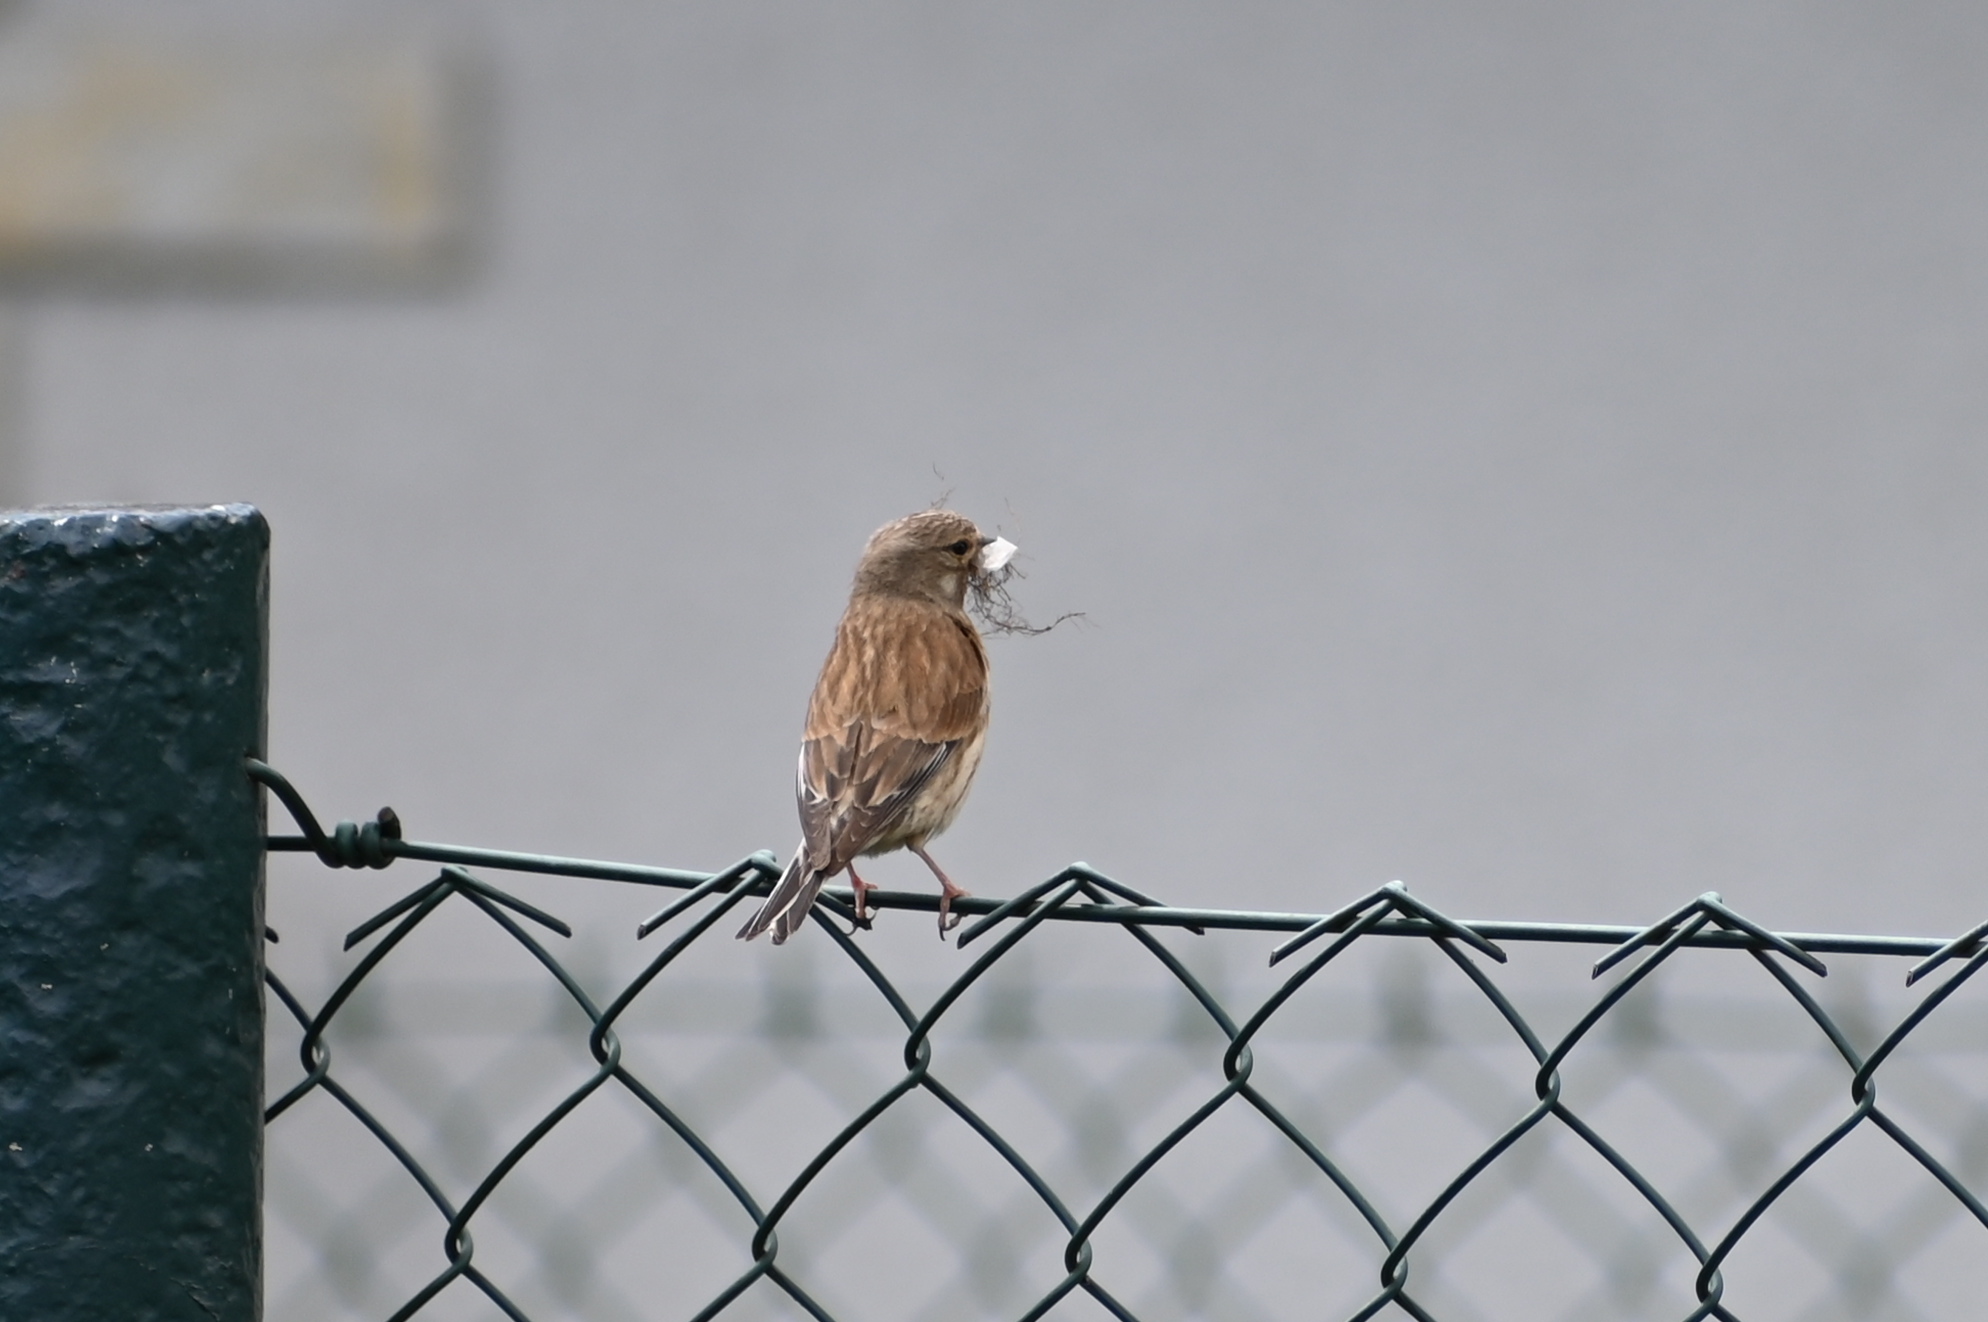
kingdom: Animalia
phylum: Chordata
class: Aves
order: Passeriformes
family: Fringillidae
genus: Linaria
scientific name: Linaria cannabina
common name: Common linnet
